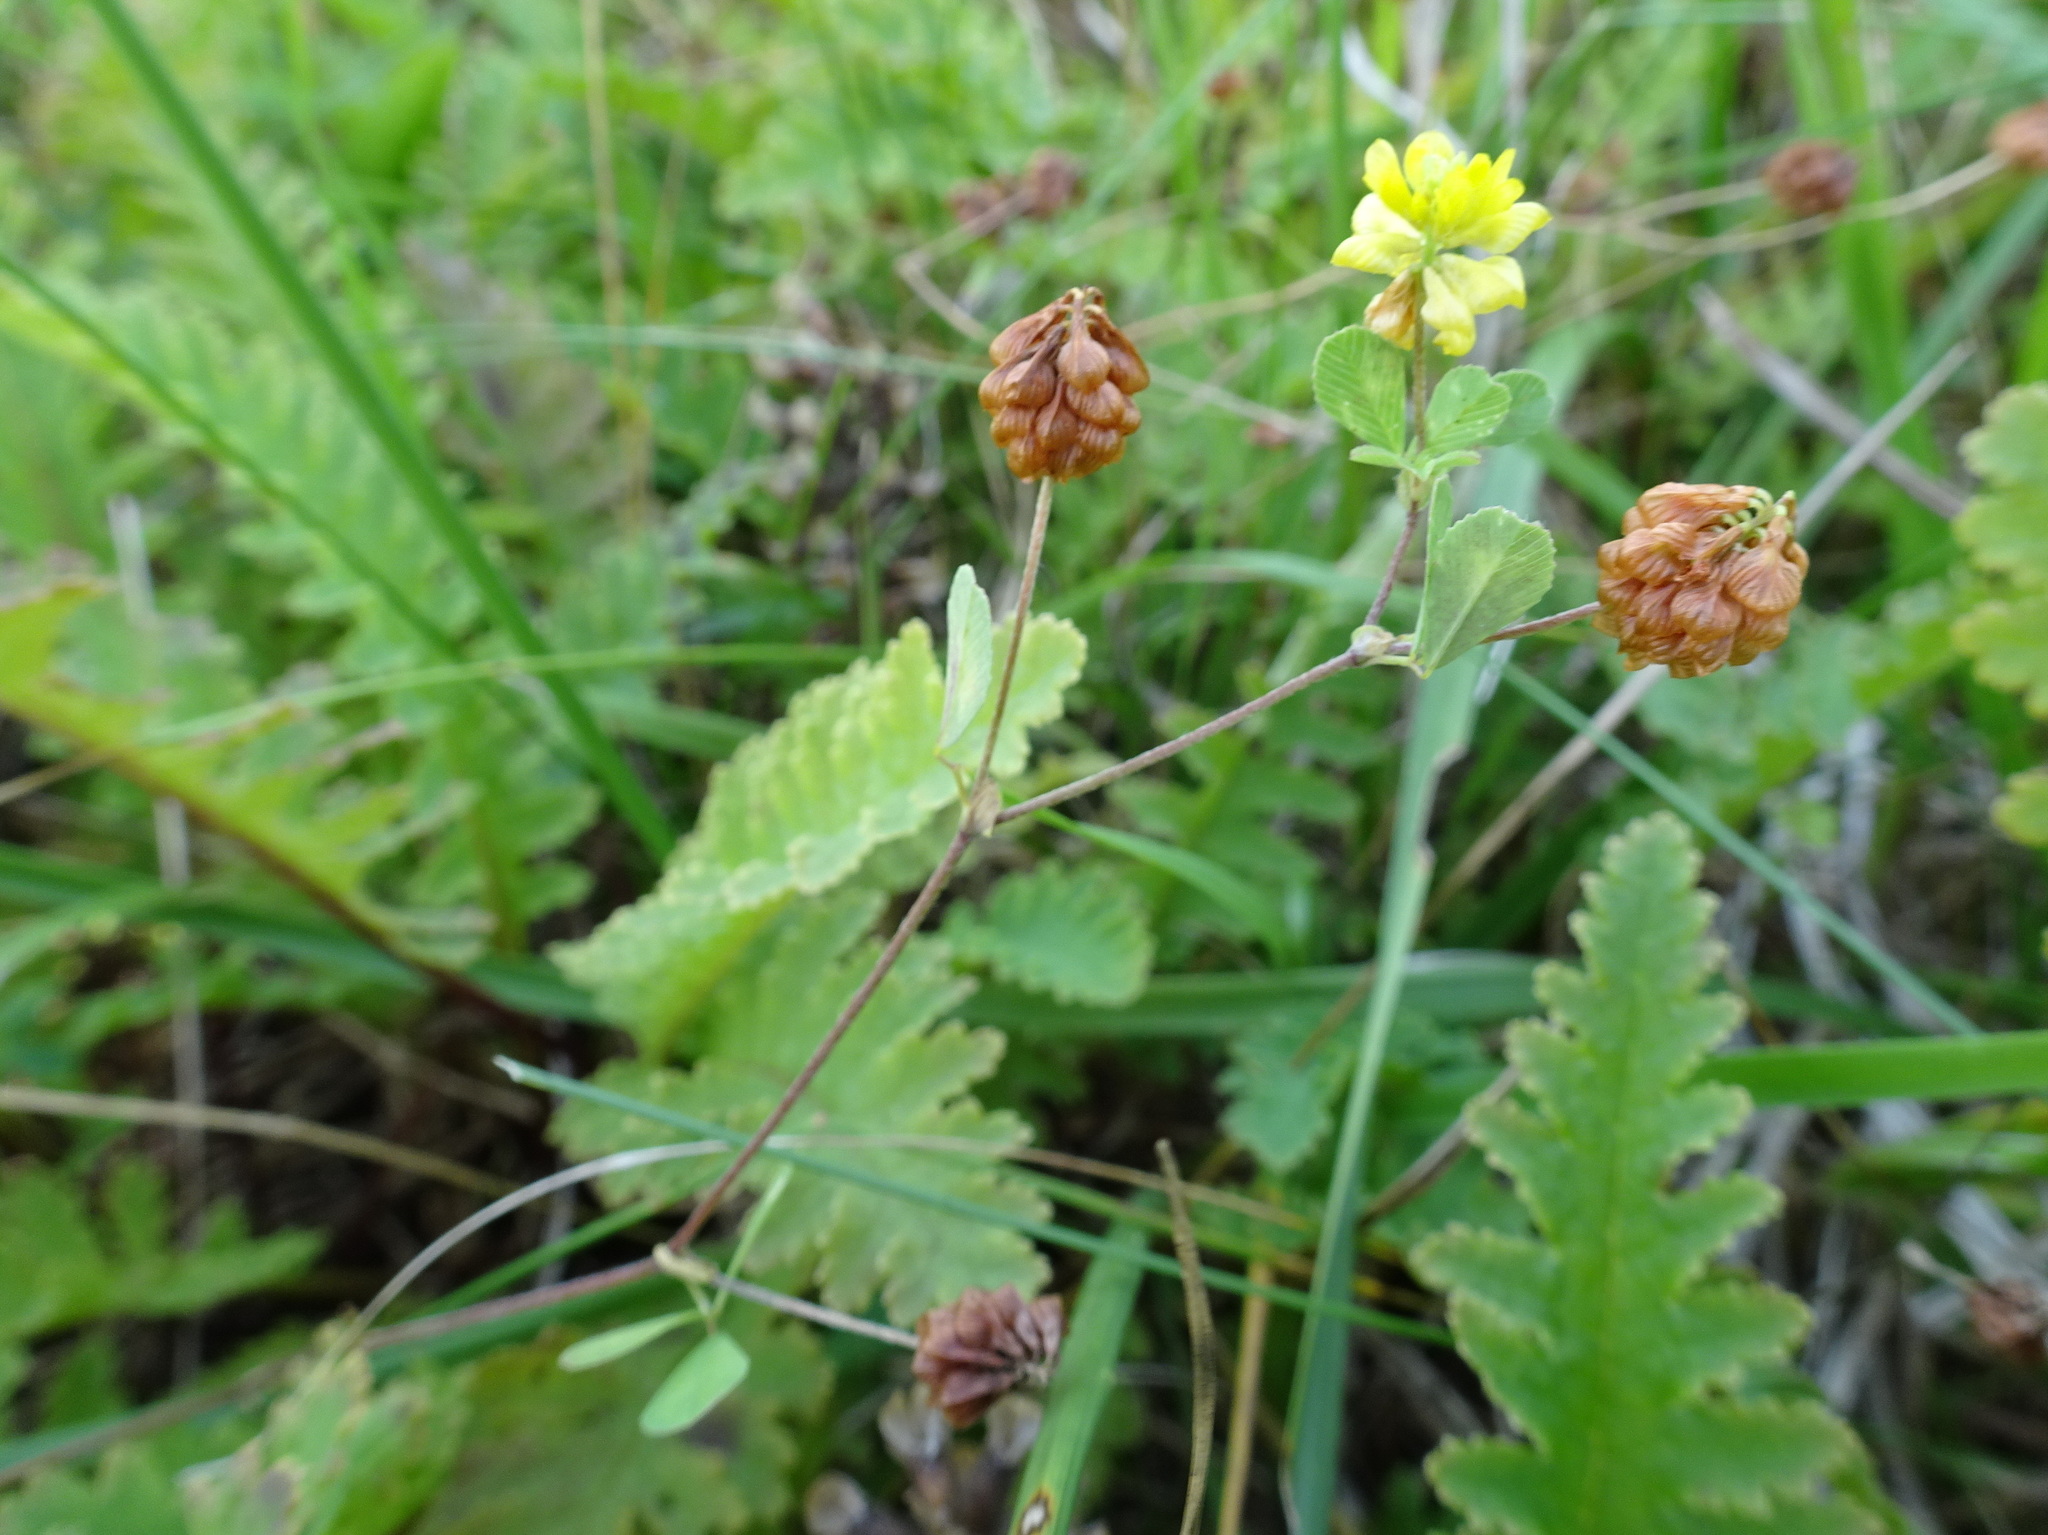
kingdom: Plantae
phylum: Tracheophyta
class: Magnoliopsida
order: Fabales
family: Fabaceae
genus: Trifolium
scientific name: Trifolium campestre
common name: Field clover
